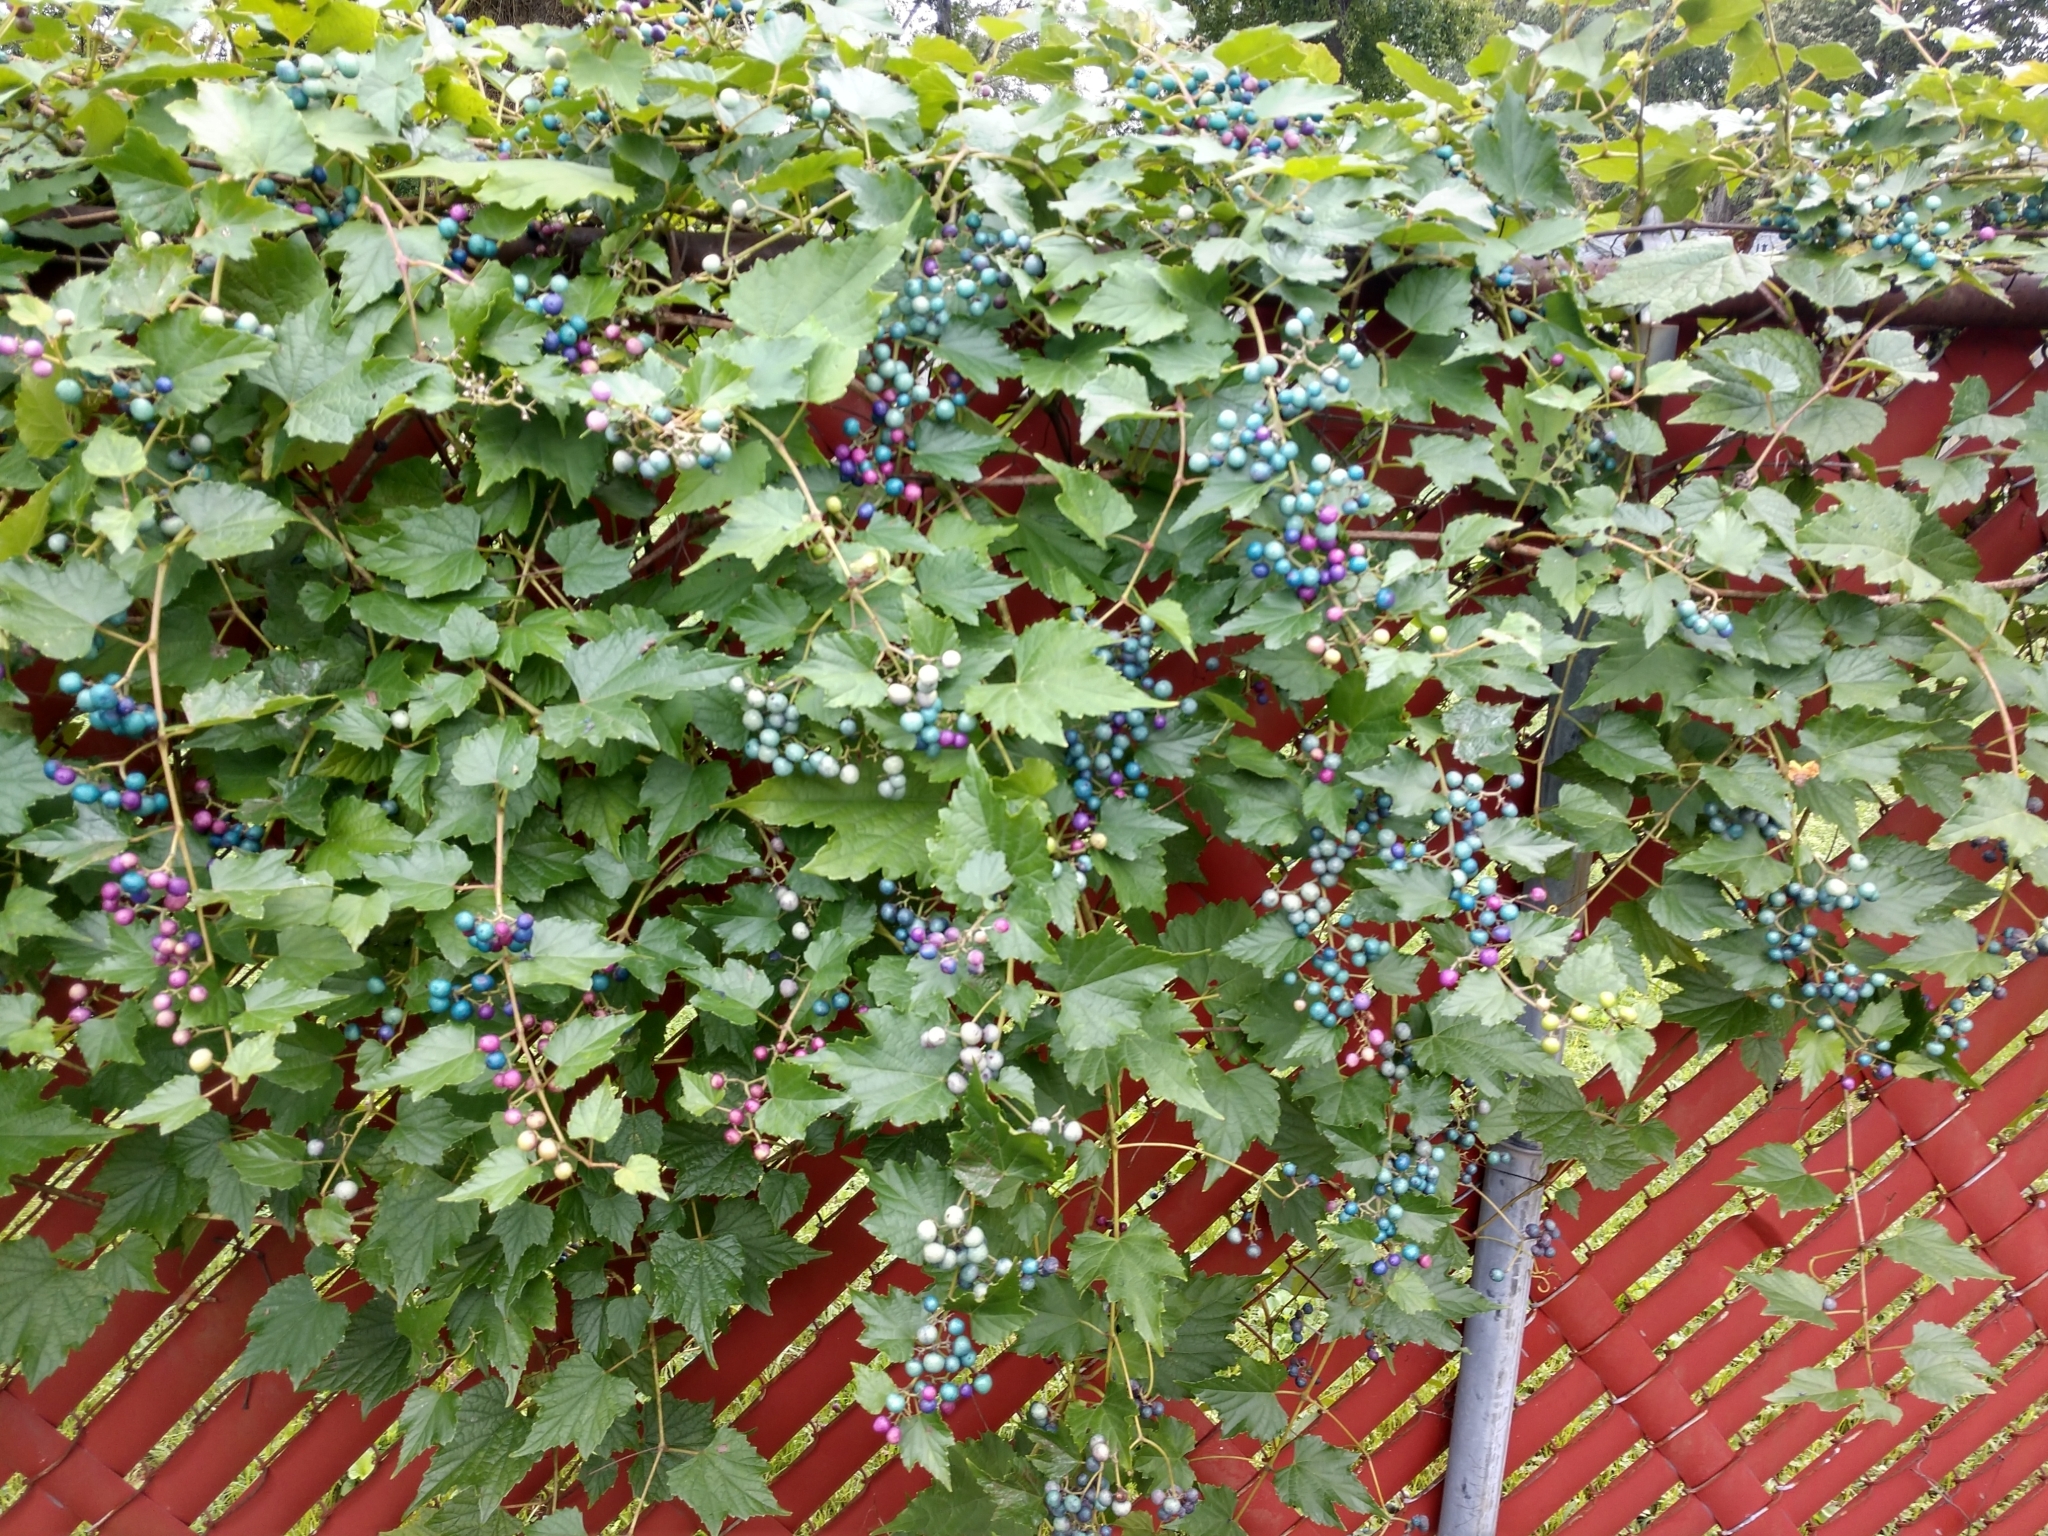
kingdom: Plantae
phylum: Tracheophyta
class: Magnoliopsida
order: Vitales
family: Vitaceae
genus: Ampelopsis
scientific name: Ampelopsis glandulosa
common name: Amur peppervine
